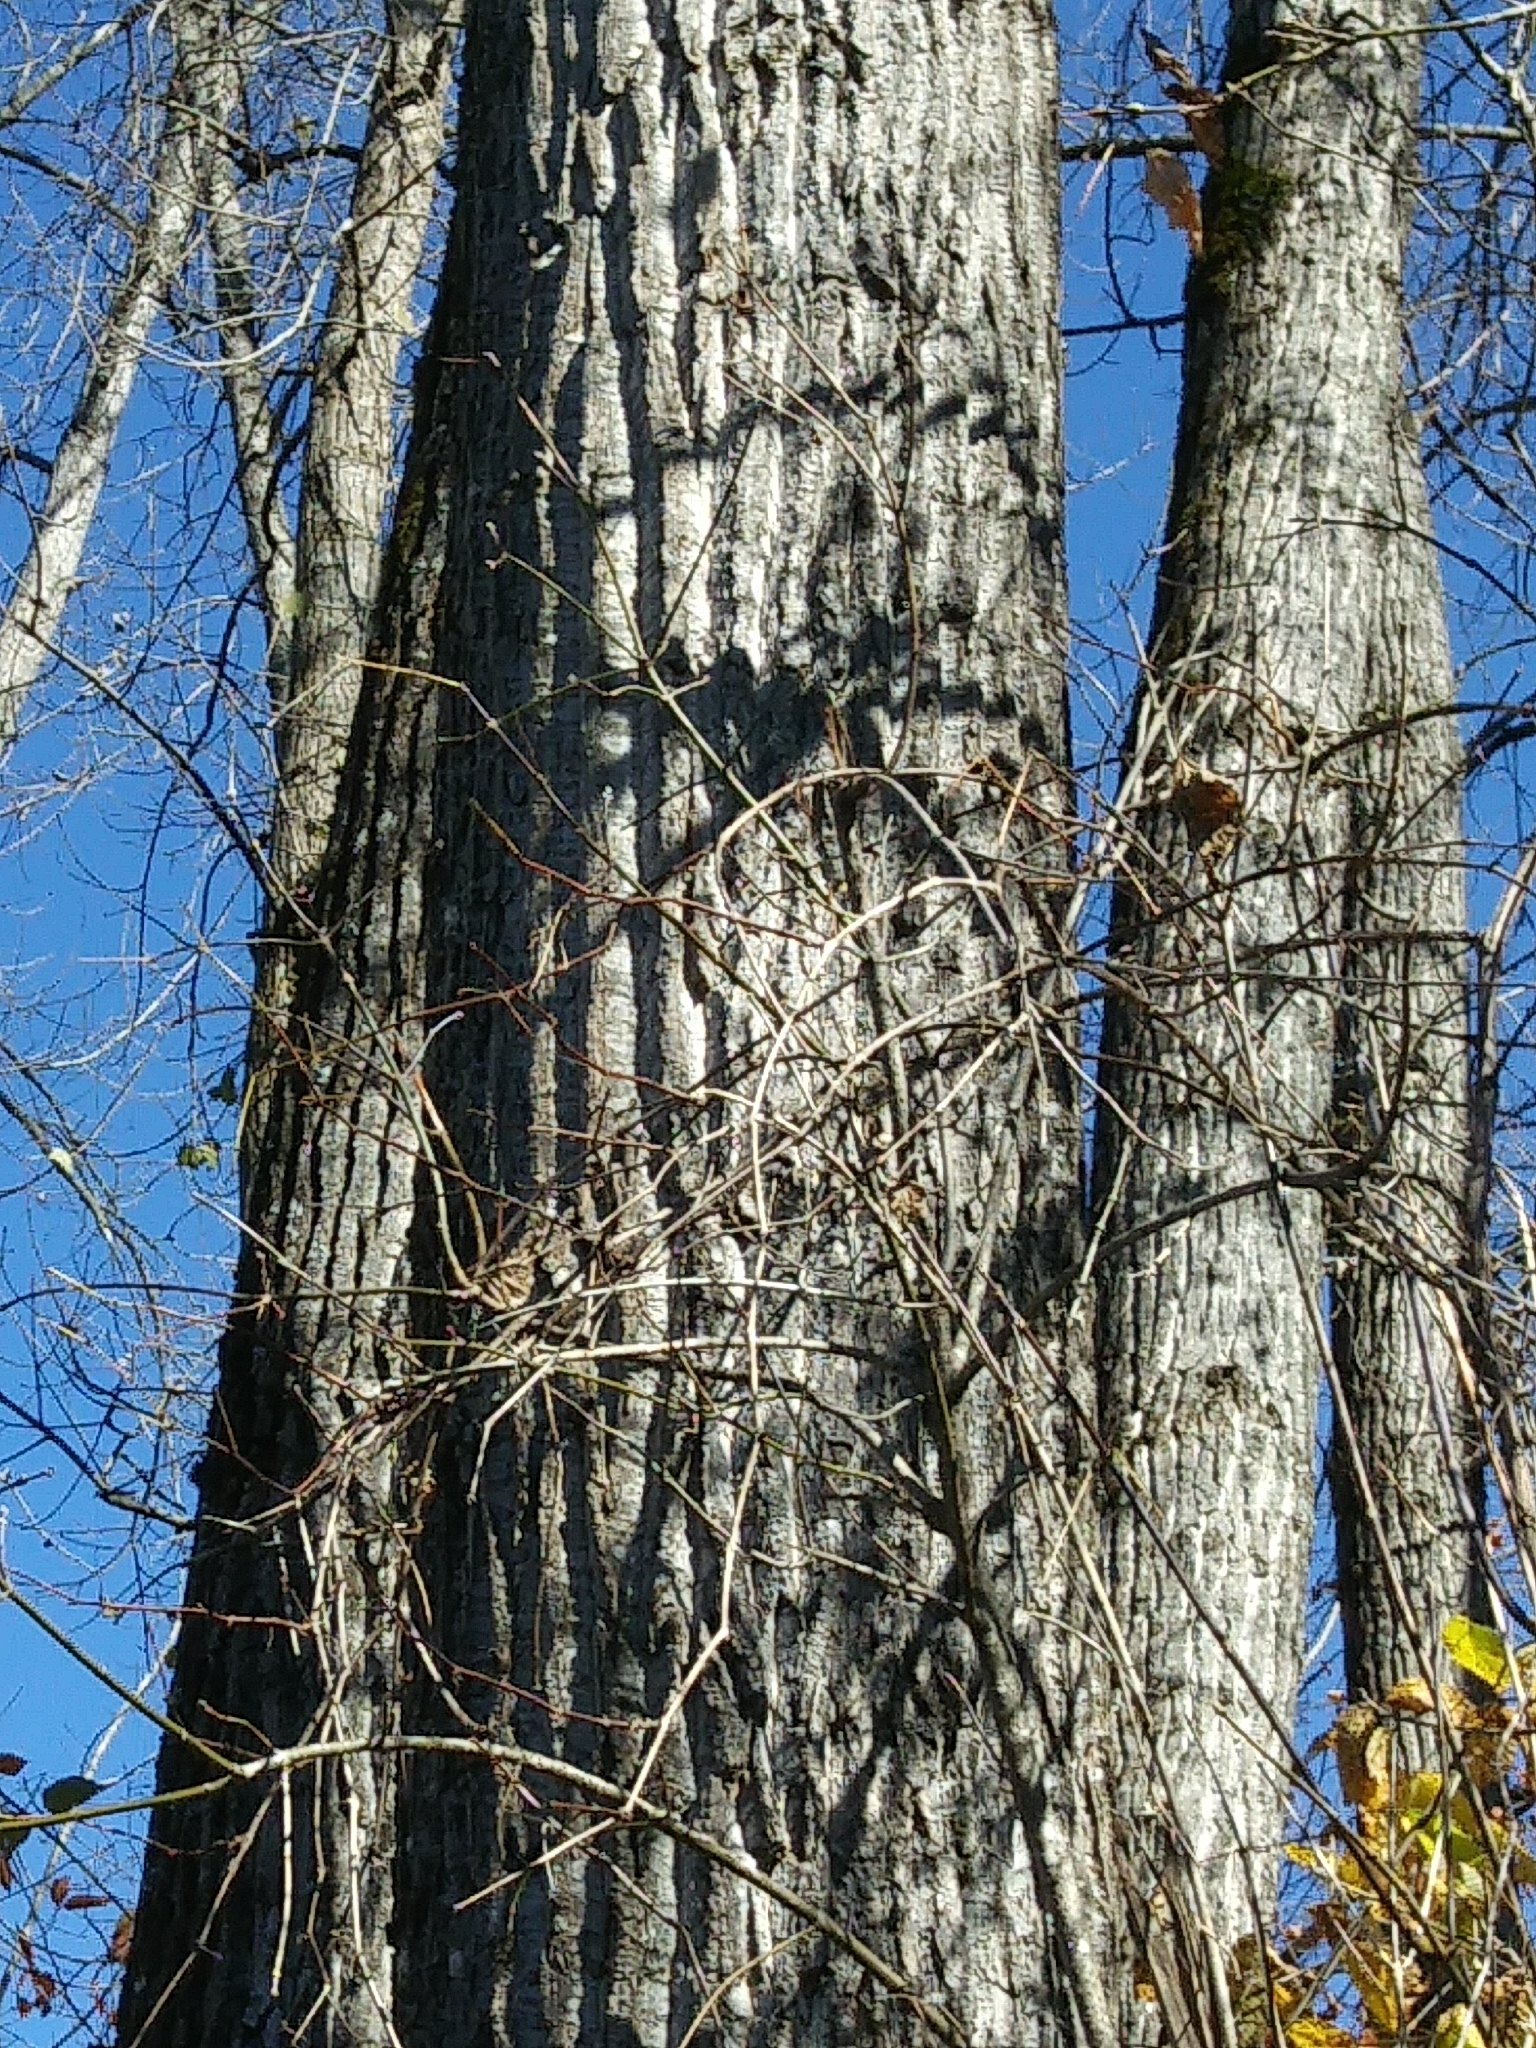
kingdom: Plantae
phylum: Tracheophyta
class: Magnoliopsida
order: Malpighiales
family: Salicaceae
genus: Populus
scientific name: Populus deltoides
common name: Eastern cottonwood
